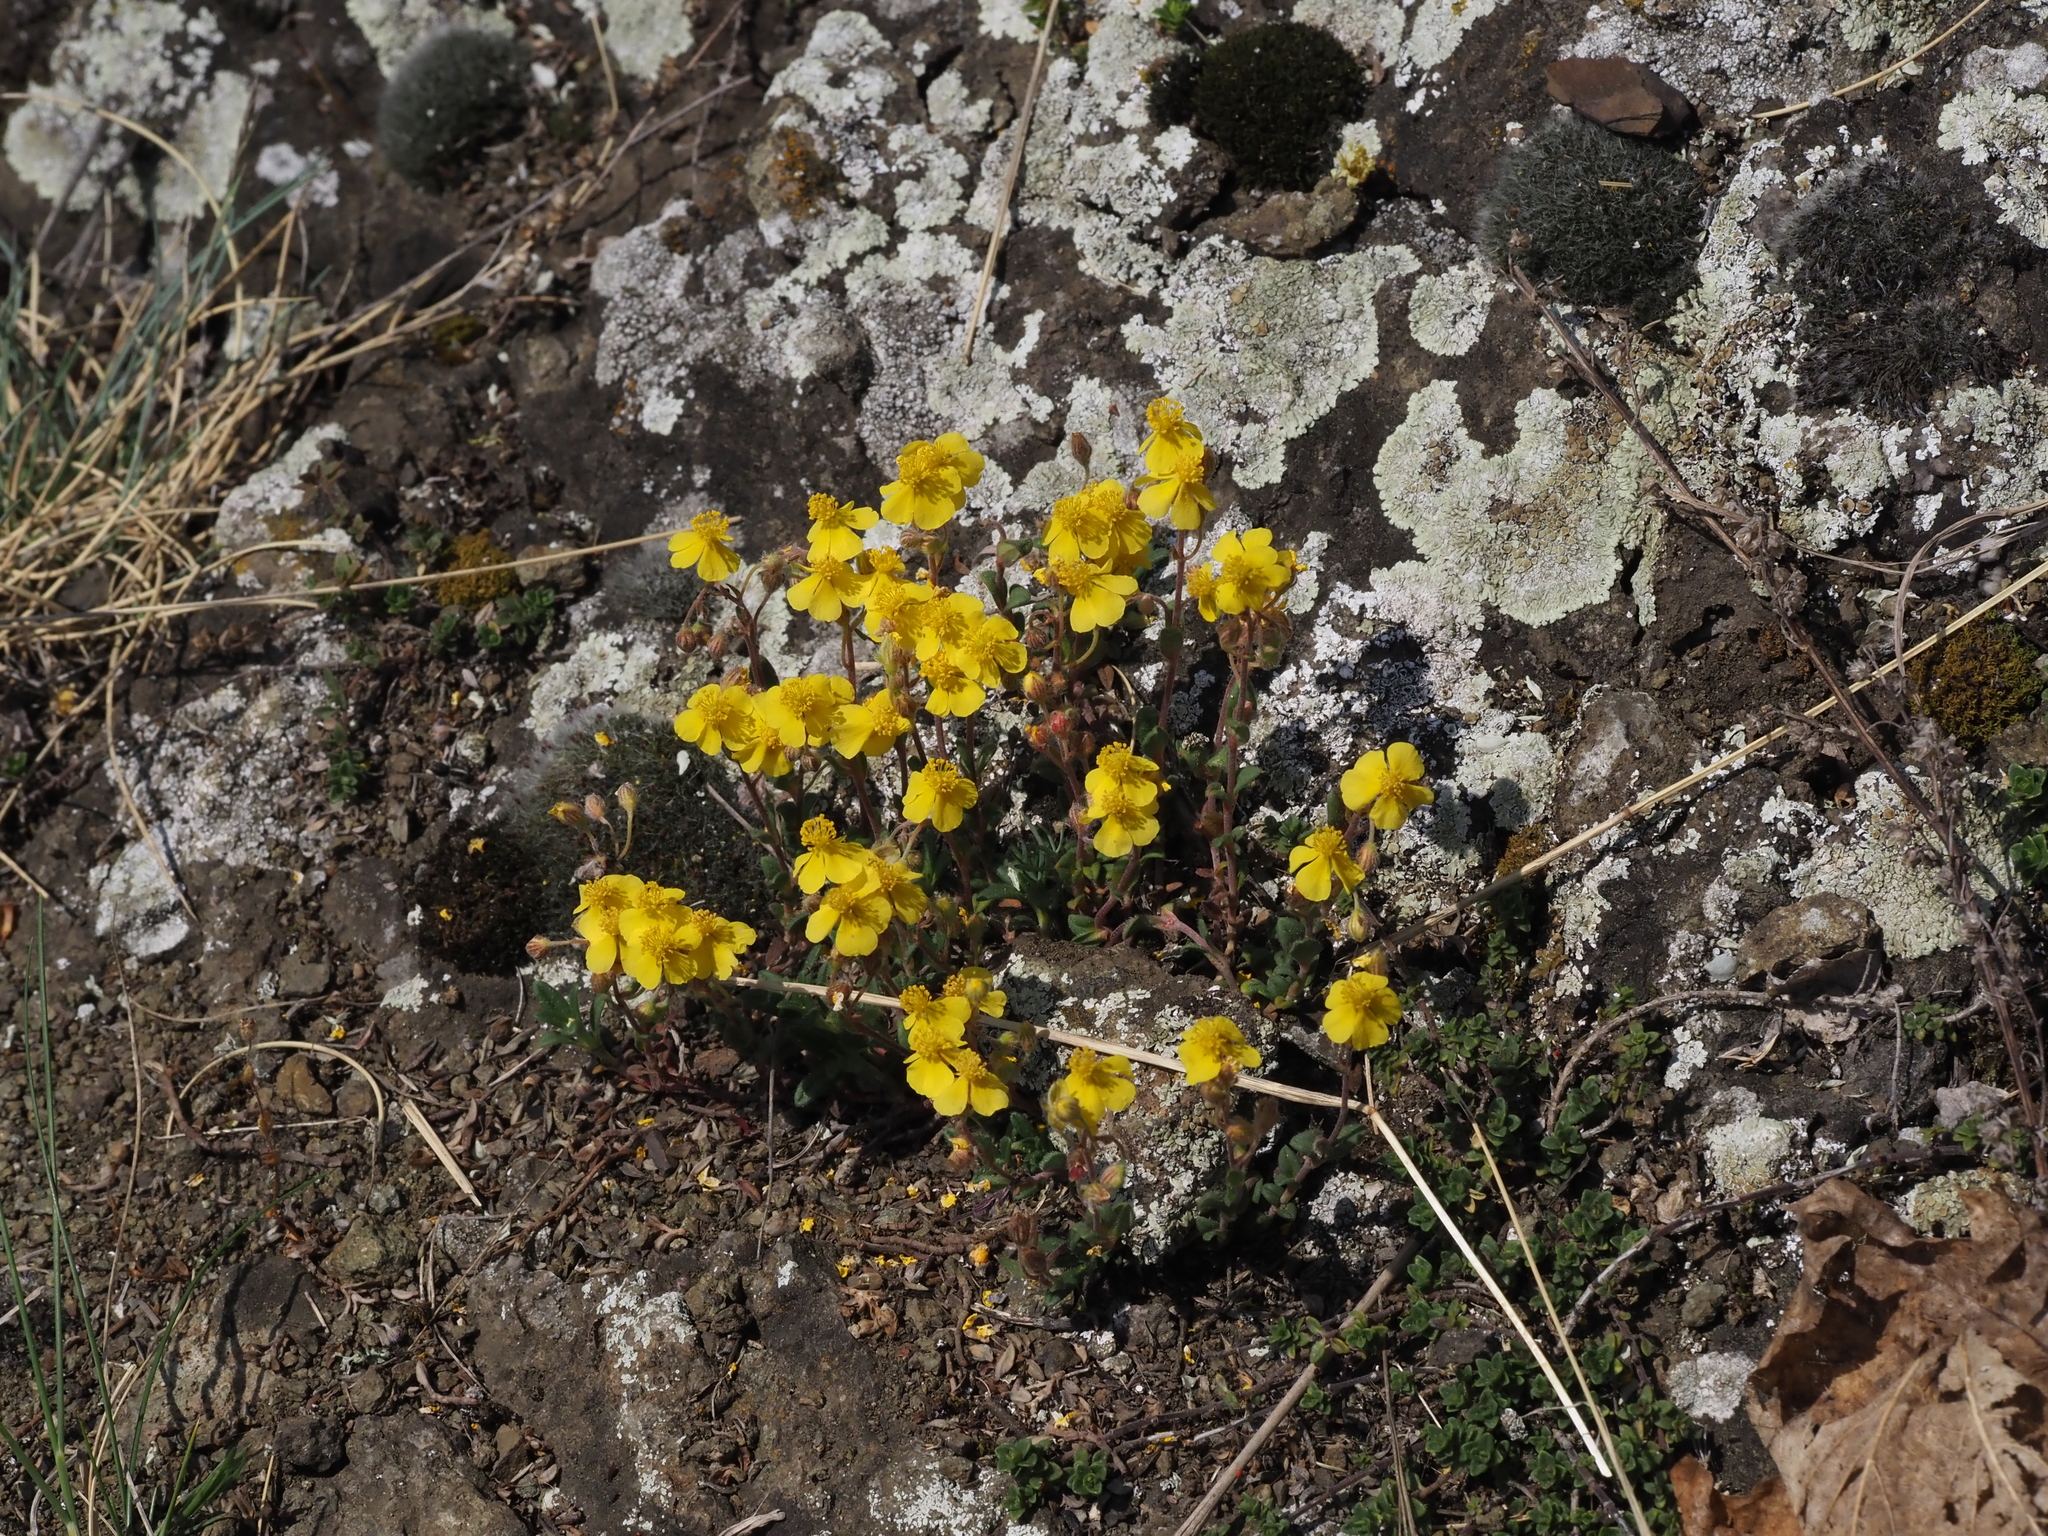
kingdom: Plantae
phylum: Tracheophyta
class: Magnoliopsida
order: Malvales
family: Cistaceae
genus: Helianthemum
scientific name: Helianthemum canum
